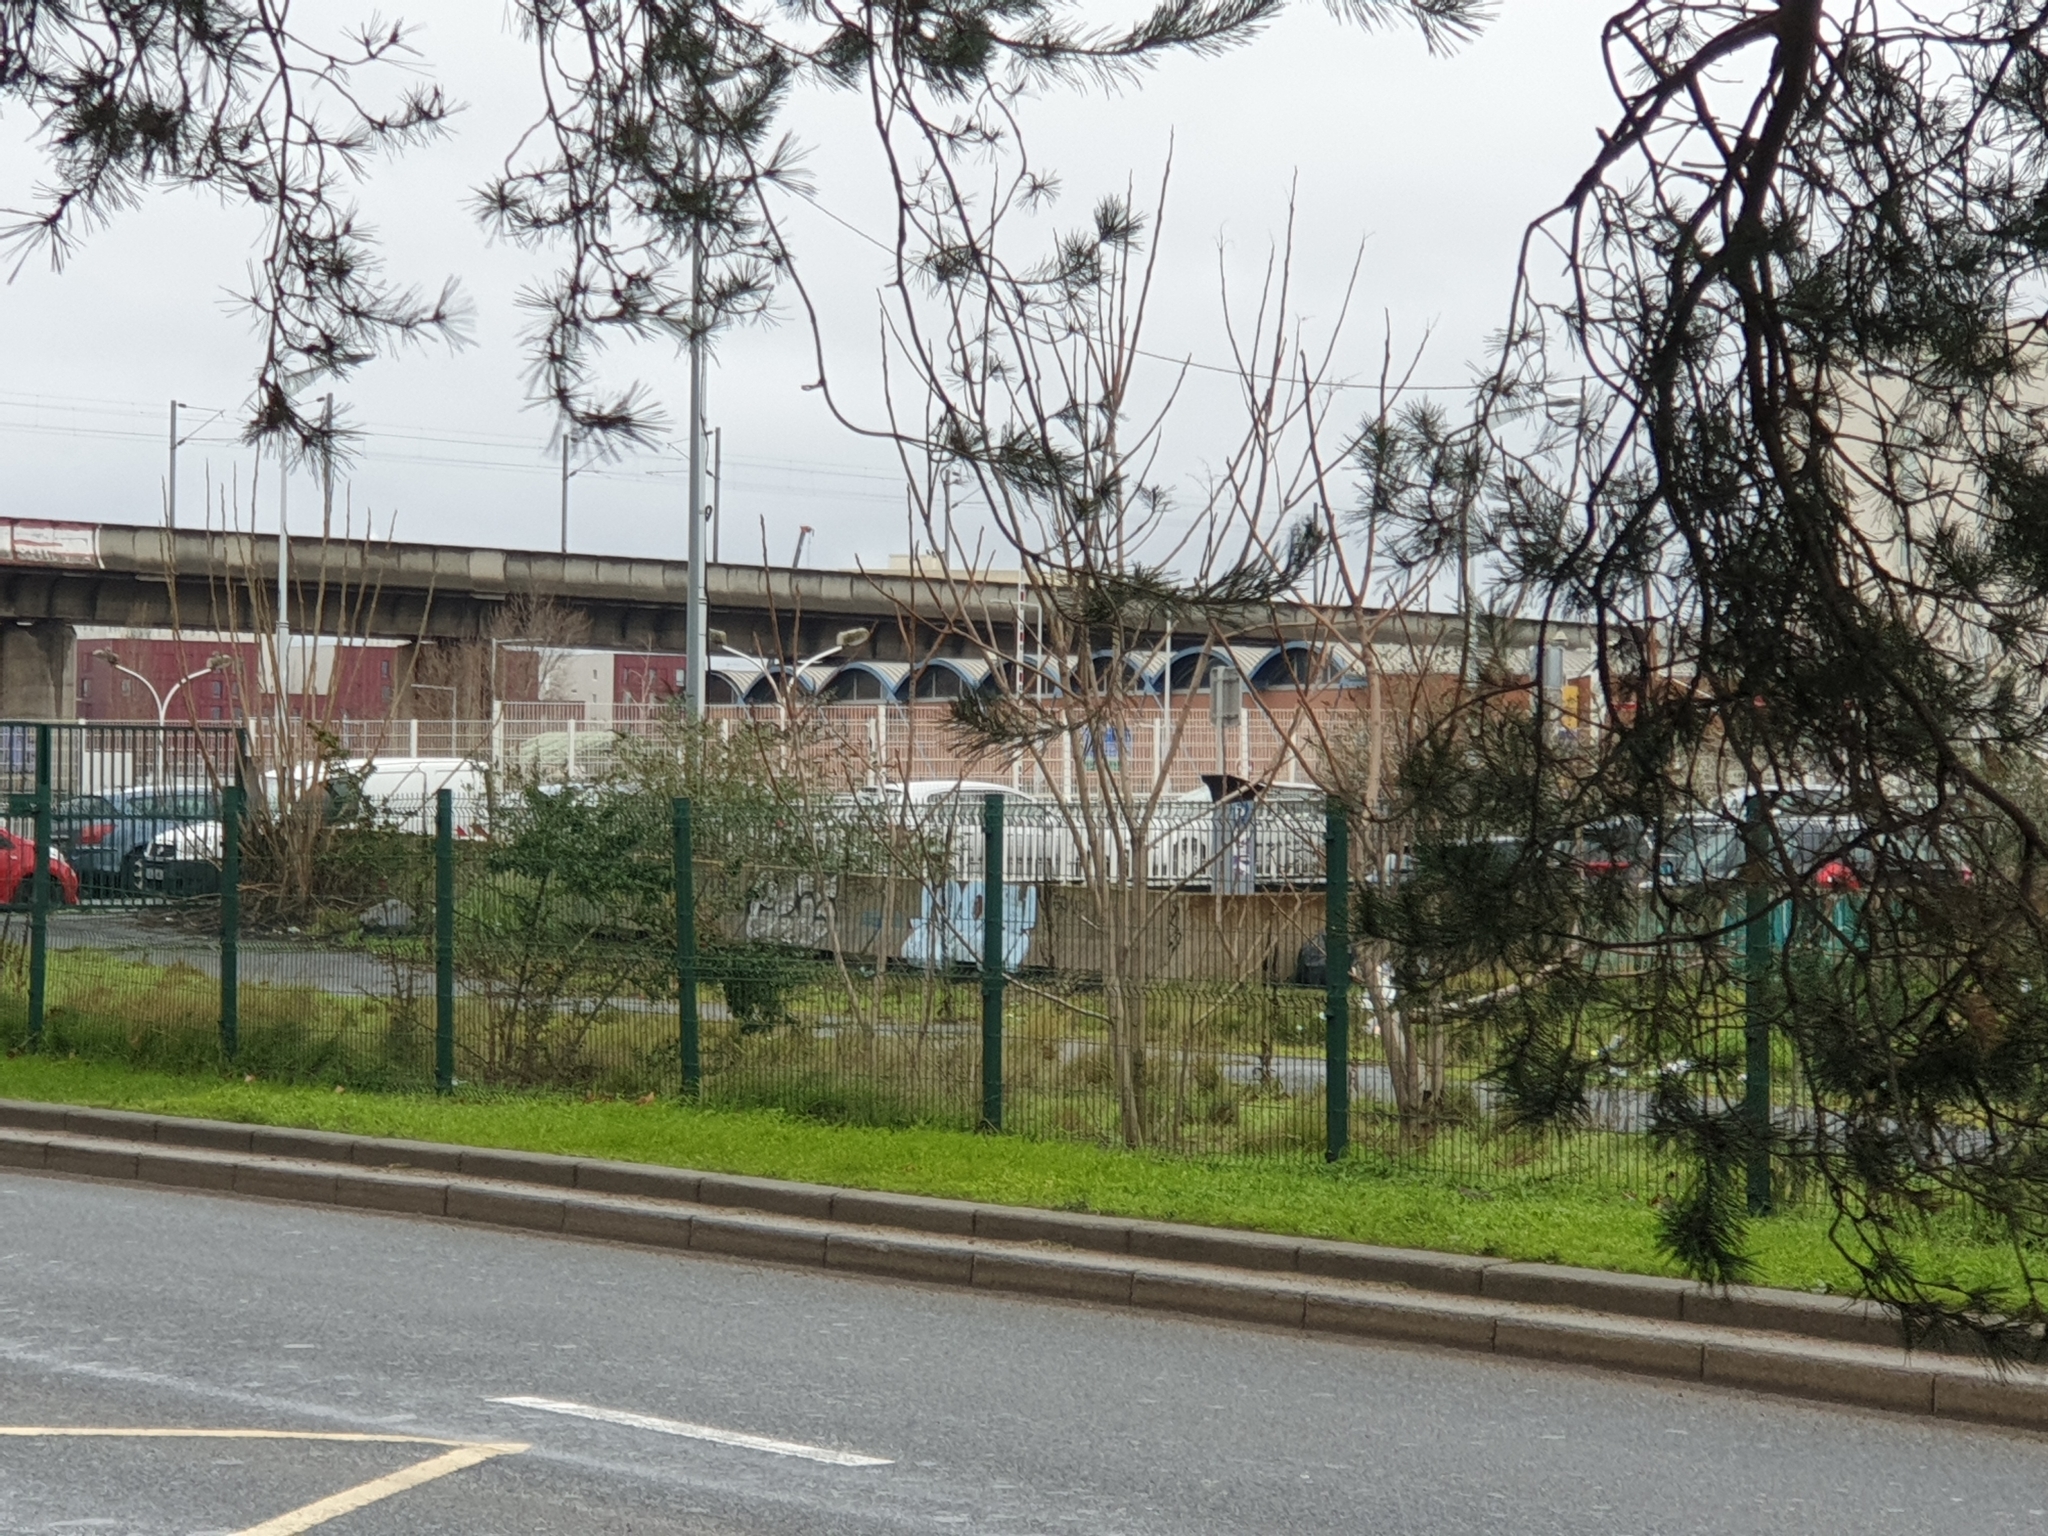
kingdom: Plantae
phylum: Tracheophyta
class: Magnoliopsida
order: Sapindales
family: Simaroubaceae
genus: Ailanthus
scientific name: Ailanthus altissima
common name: Tree-of-heaven
